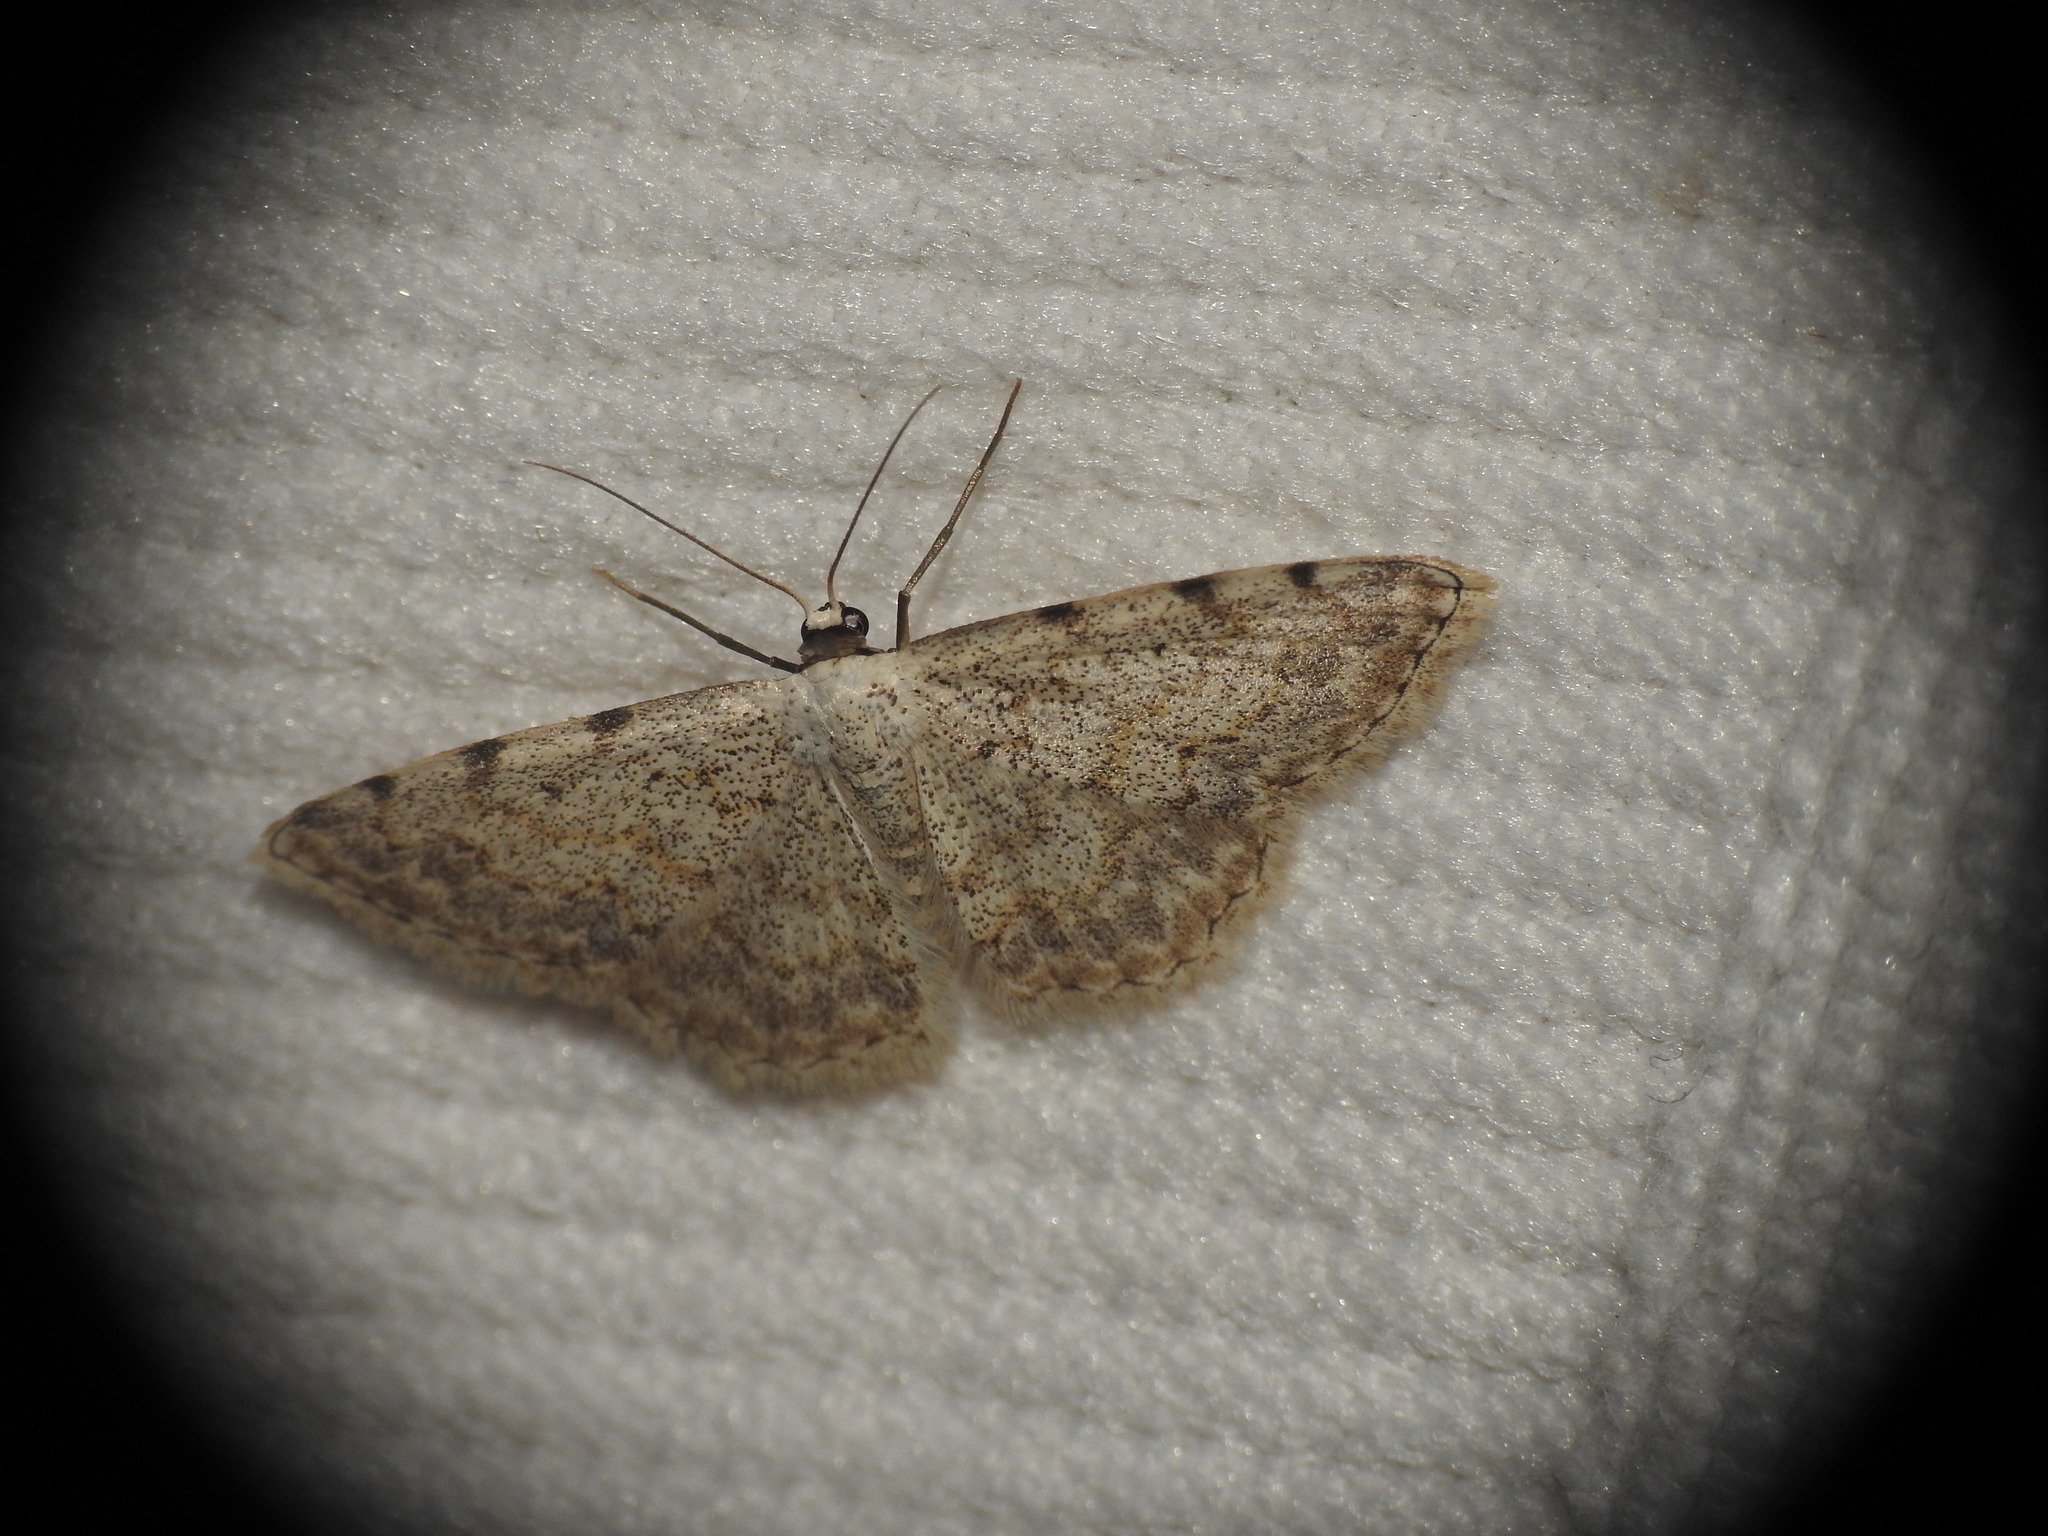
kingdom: Animalia
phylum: Arthropoda
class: Insecta
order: Lepidoptera
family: Geometridae
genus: Scopula
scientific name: Scopula submutata
